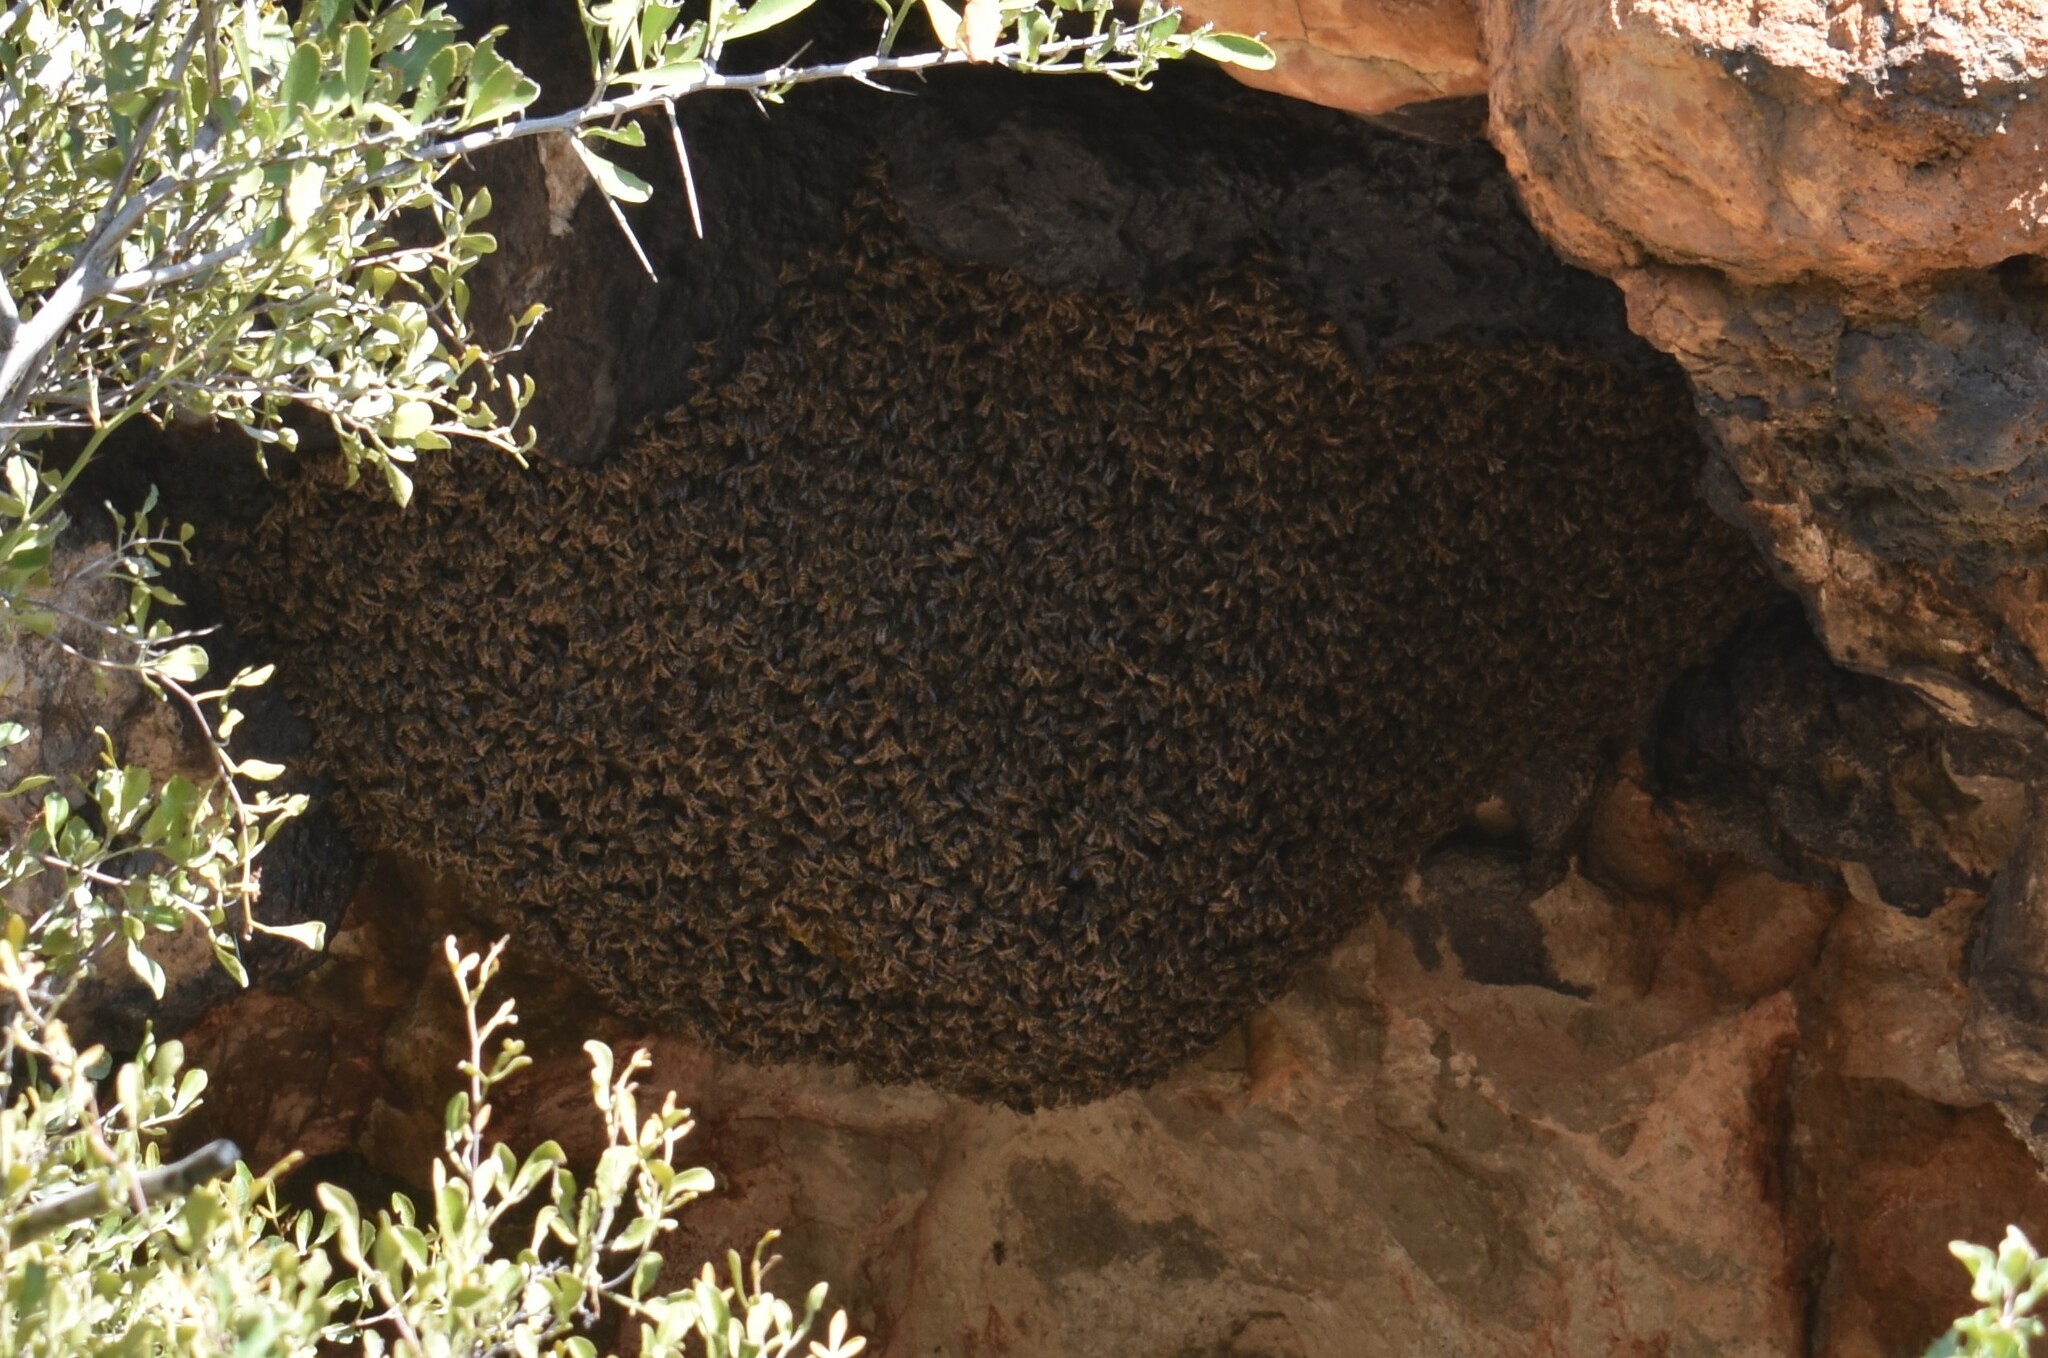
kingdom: Animalia
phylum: Arthropoda
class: Insecta
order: Hymenoptera
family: Apidae
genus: Apis
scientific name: Apis mellifera
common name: Honey bee
